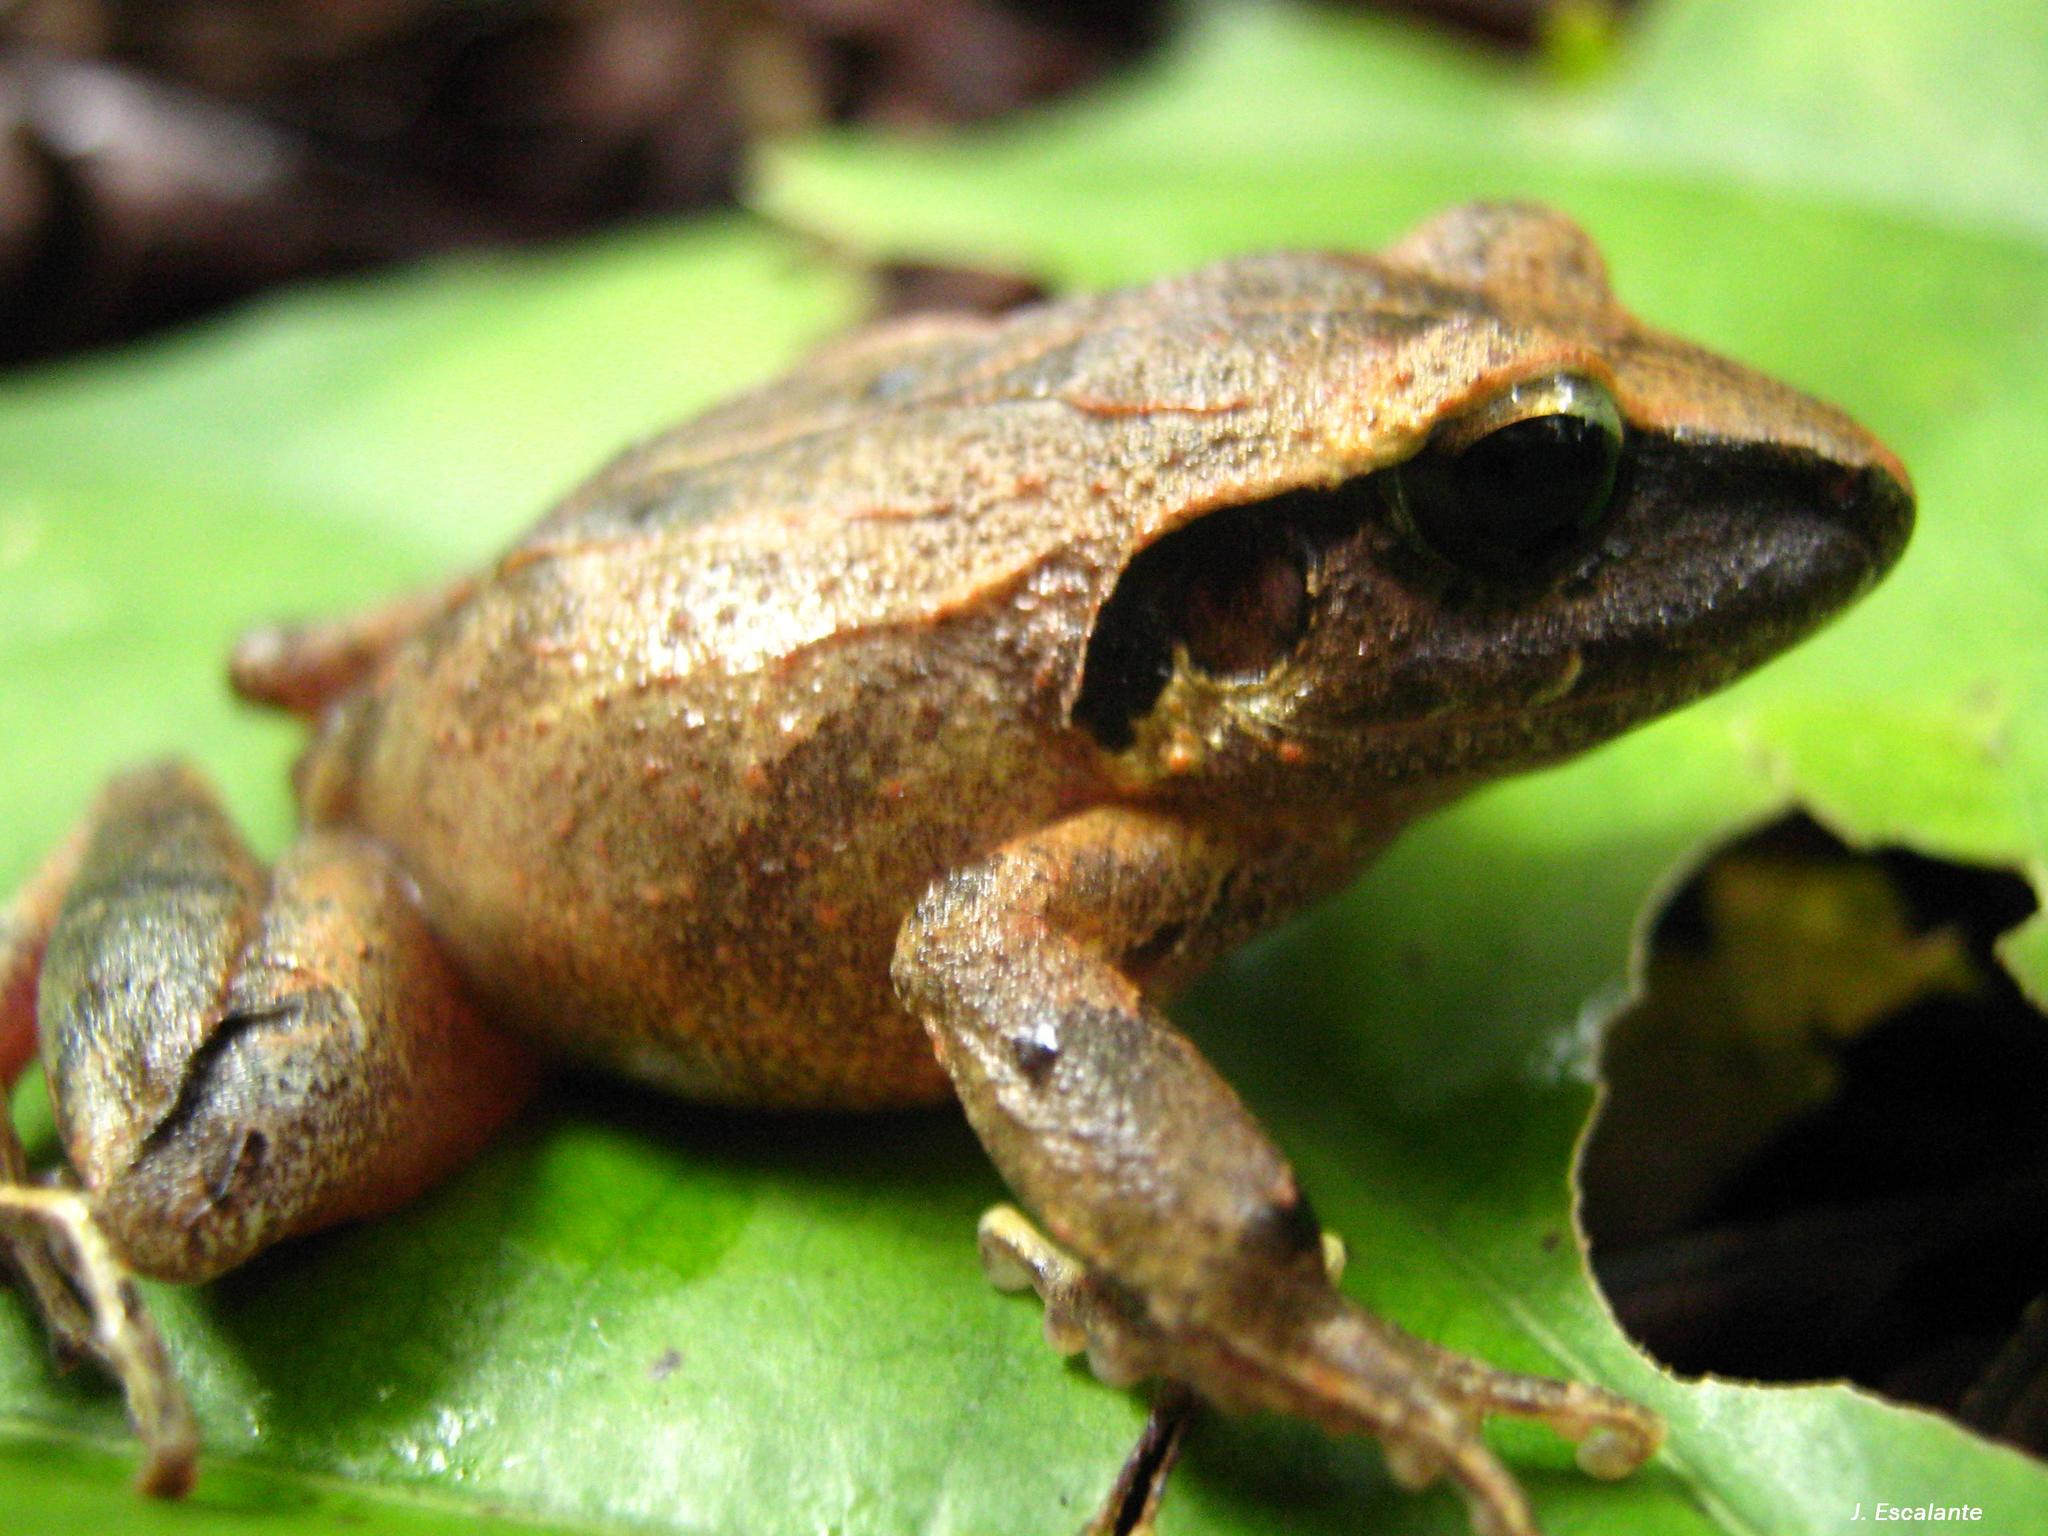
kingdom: Animalia
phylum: Chordata
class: Amphibia
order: Anura
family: Craugastoridae
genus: Craugastor
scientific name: Craugastor loki
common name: Common leaf-litter frog
